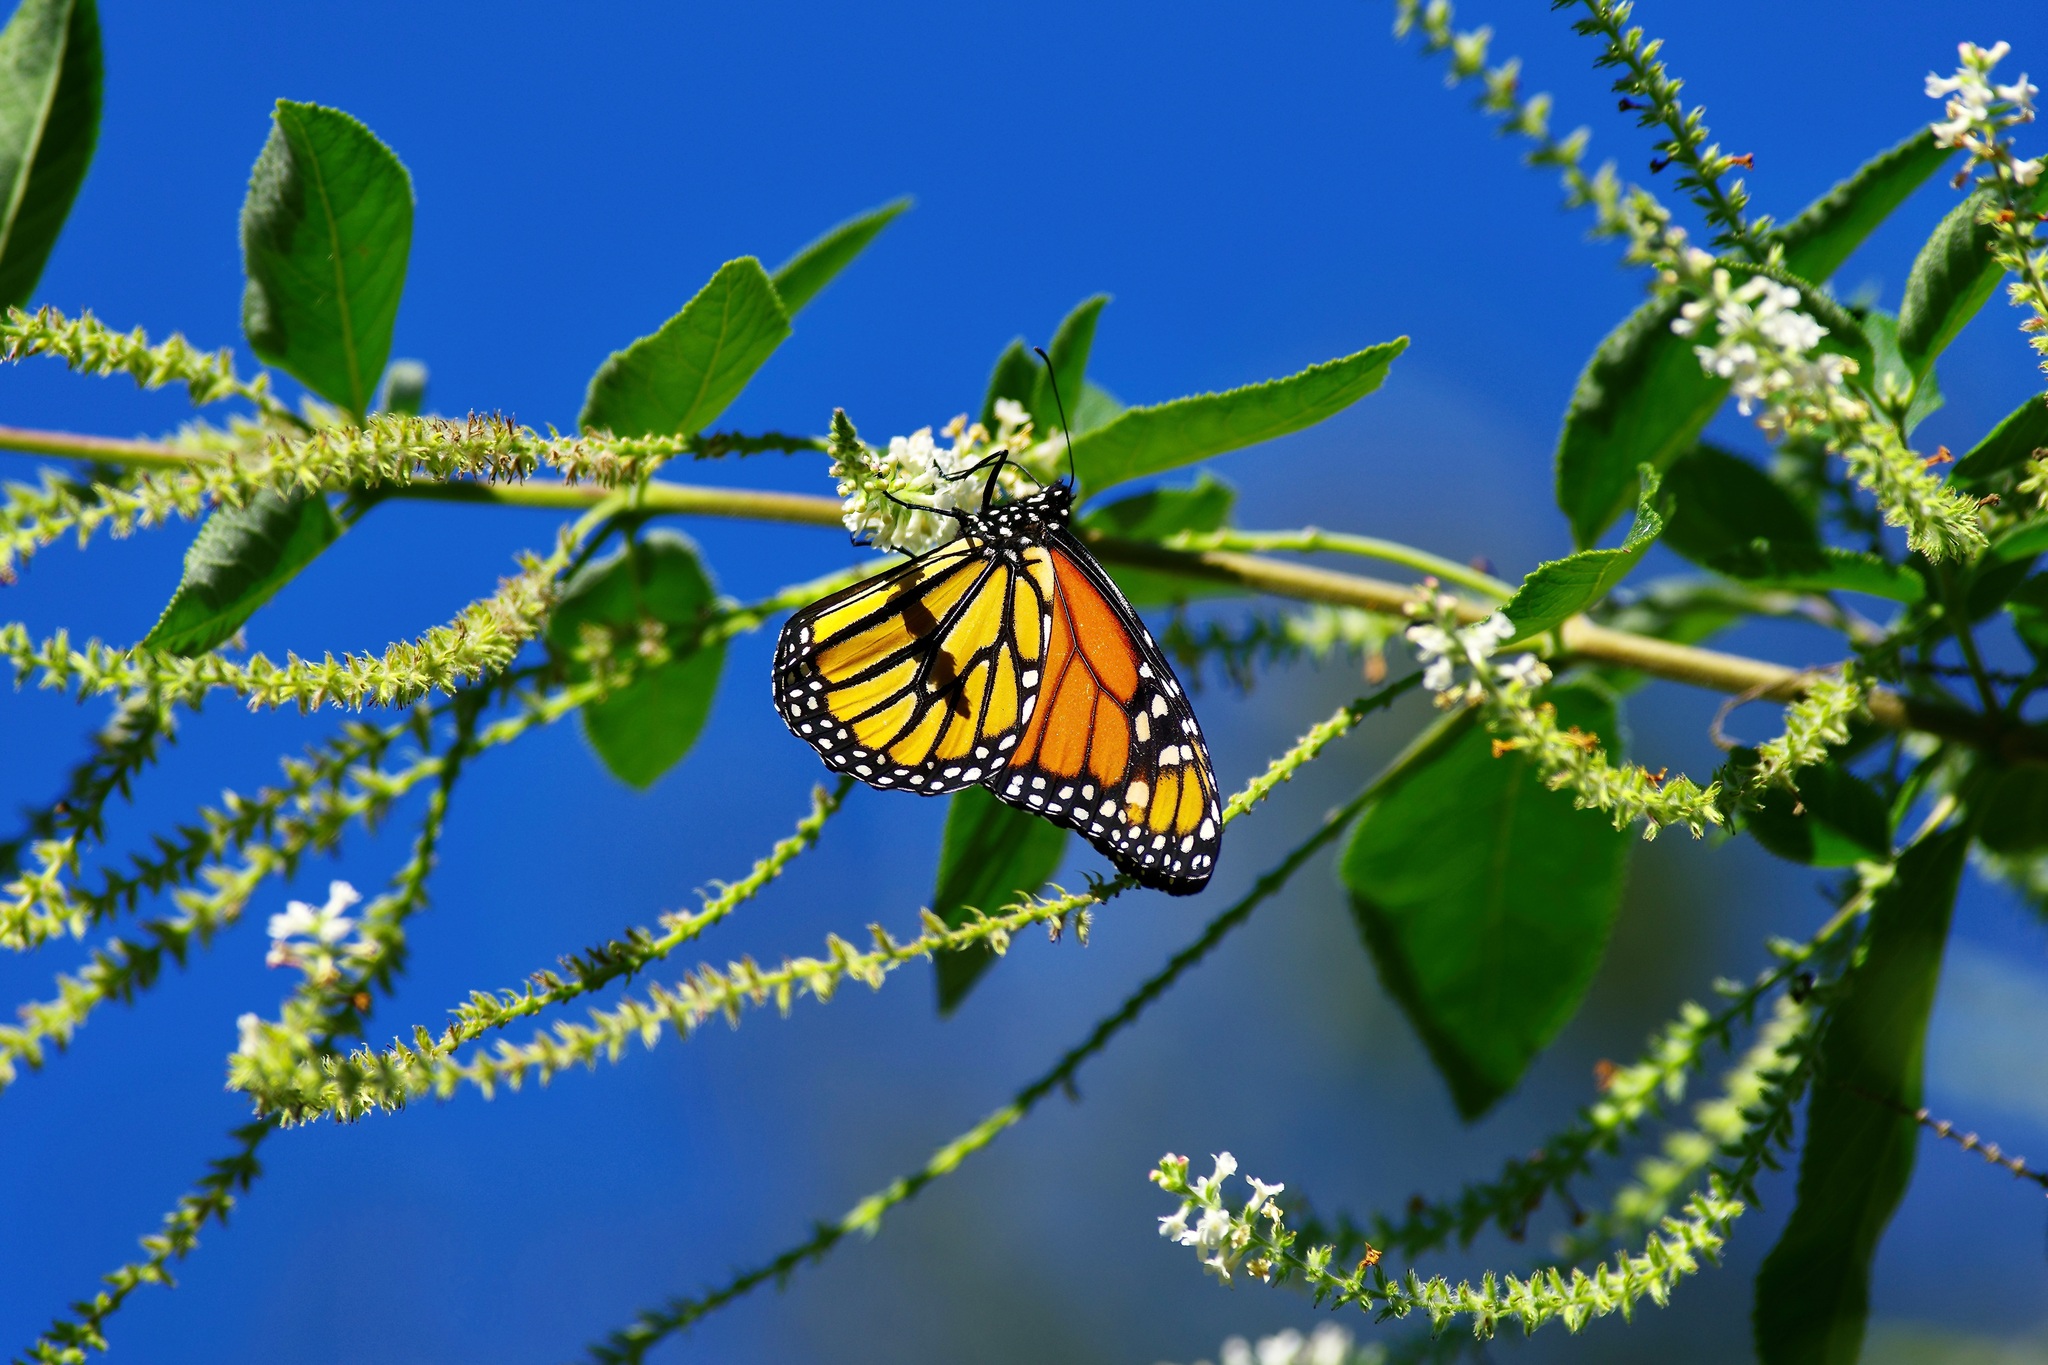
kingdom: Animalia
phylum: Arthropoda
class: Insecta
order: Lepidoptera
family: Nymphalidae
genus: Danaus
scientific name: Danaus plexippus
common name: Monarch
